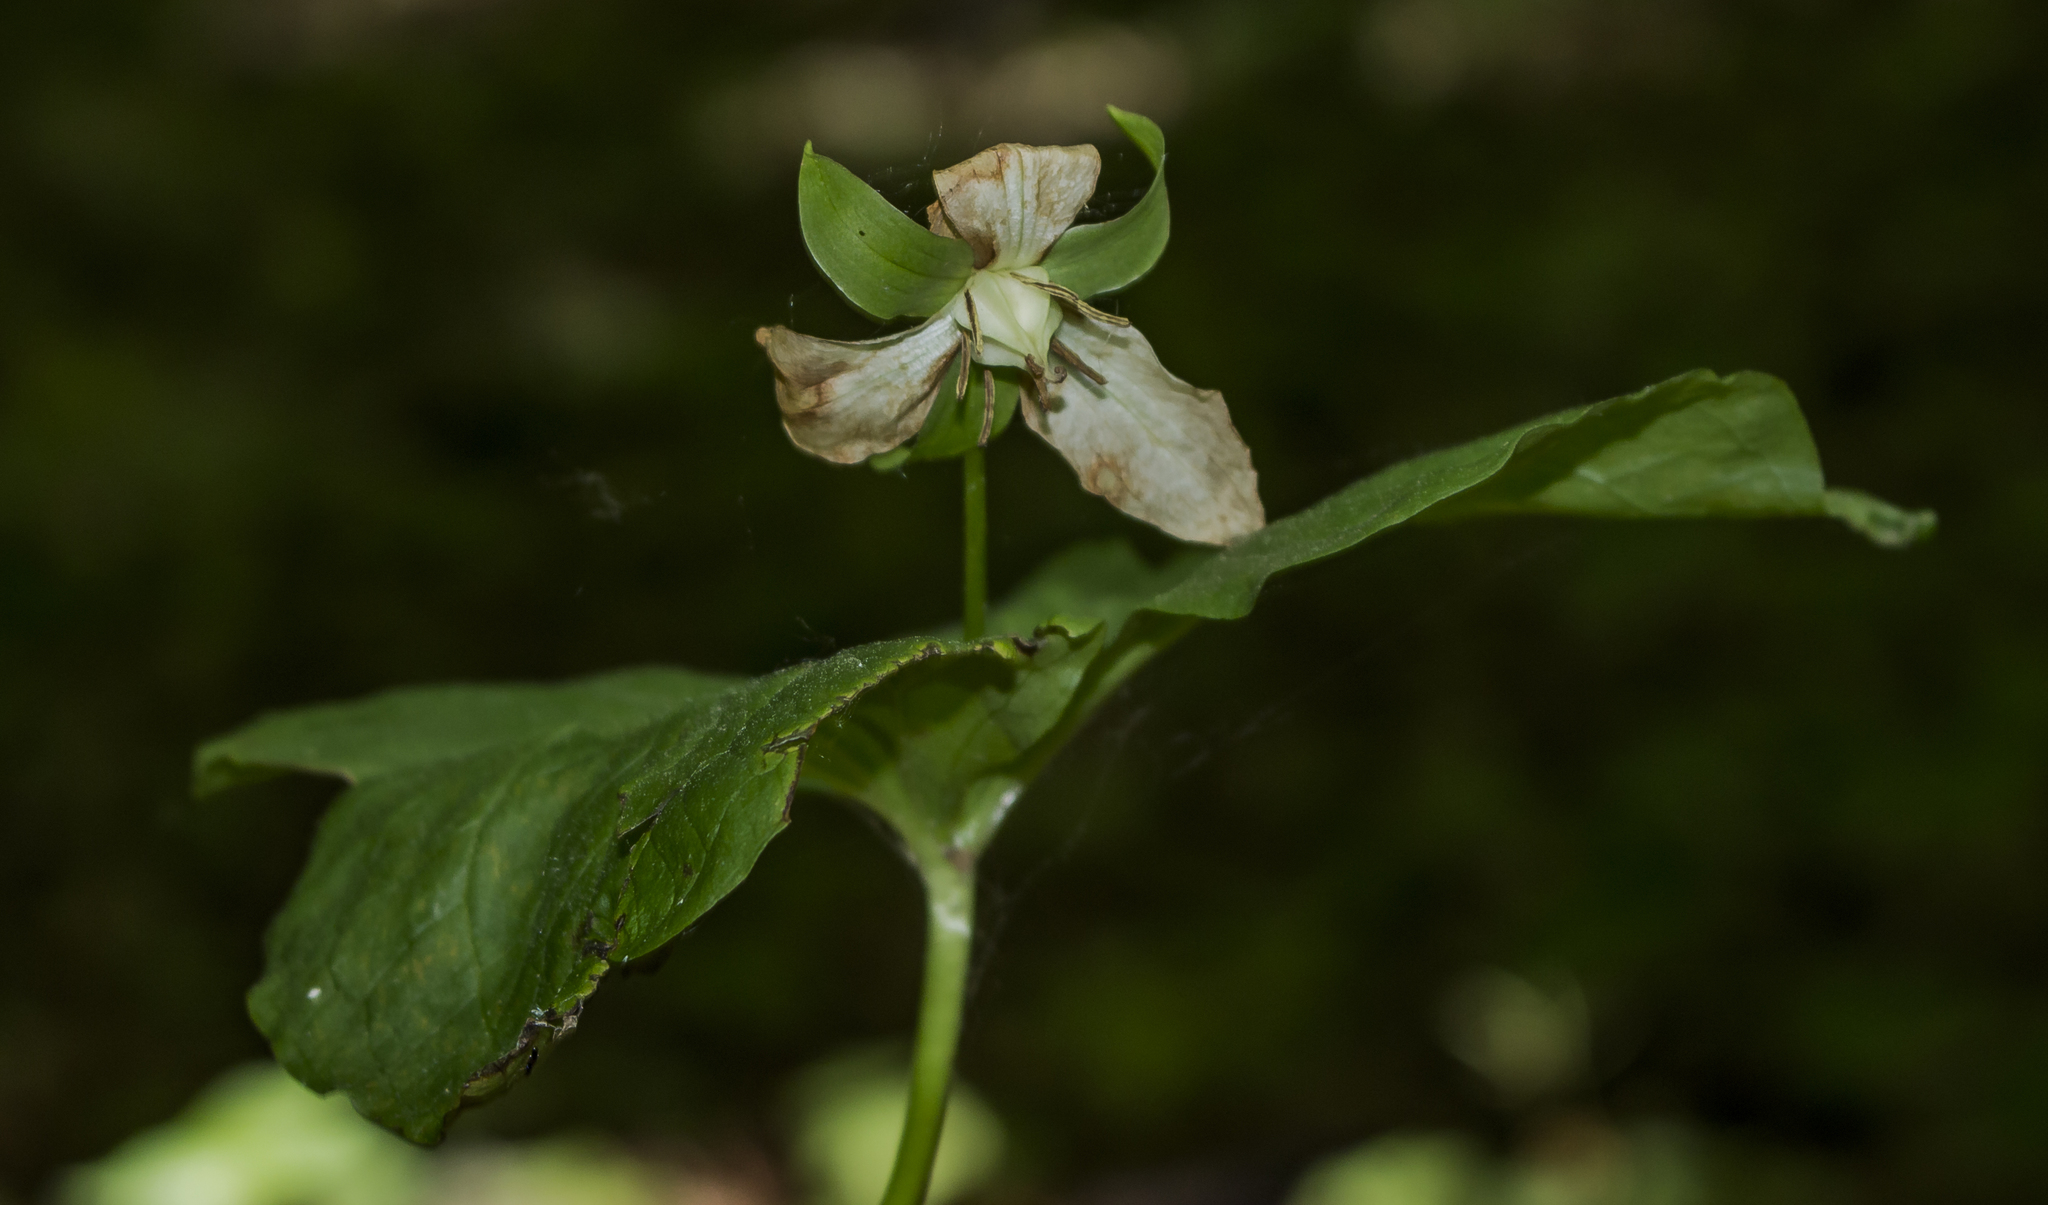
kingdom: Plantae
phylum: Tracheophyta
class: Liliopsida
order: Liliales
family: Melanthiaceae
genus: Trillium
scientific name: Trillium flexipes
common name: Drooping trillium
